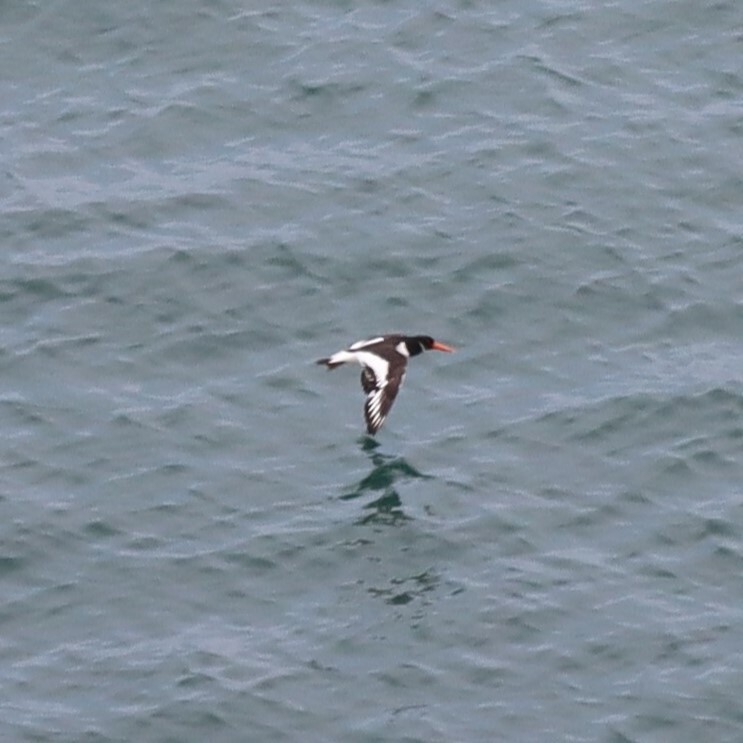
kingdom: Animalia
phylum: Chordata
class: Aves
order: Charadriiformes
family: Haematopodidae
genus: Haematopus
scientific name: Haematopus ostralegus
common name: Eurasian oystercatcher
